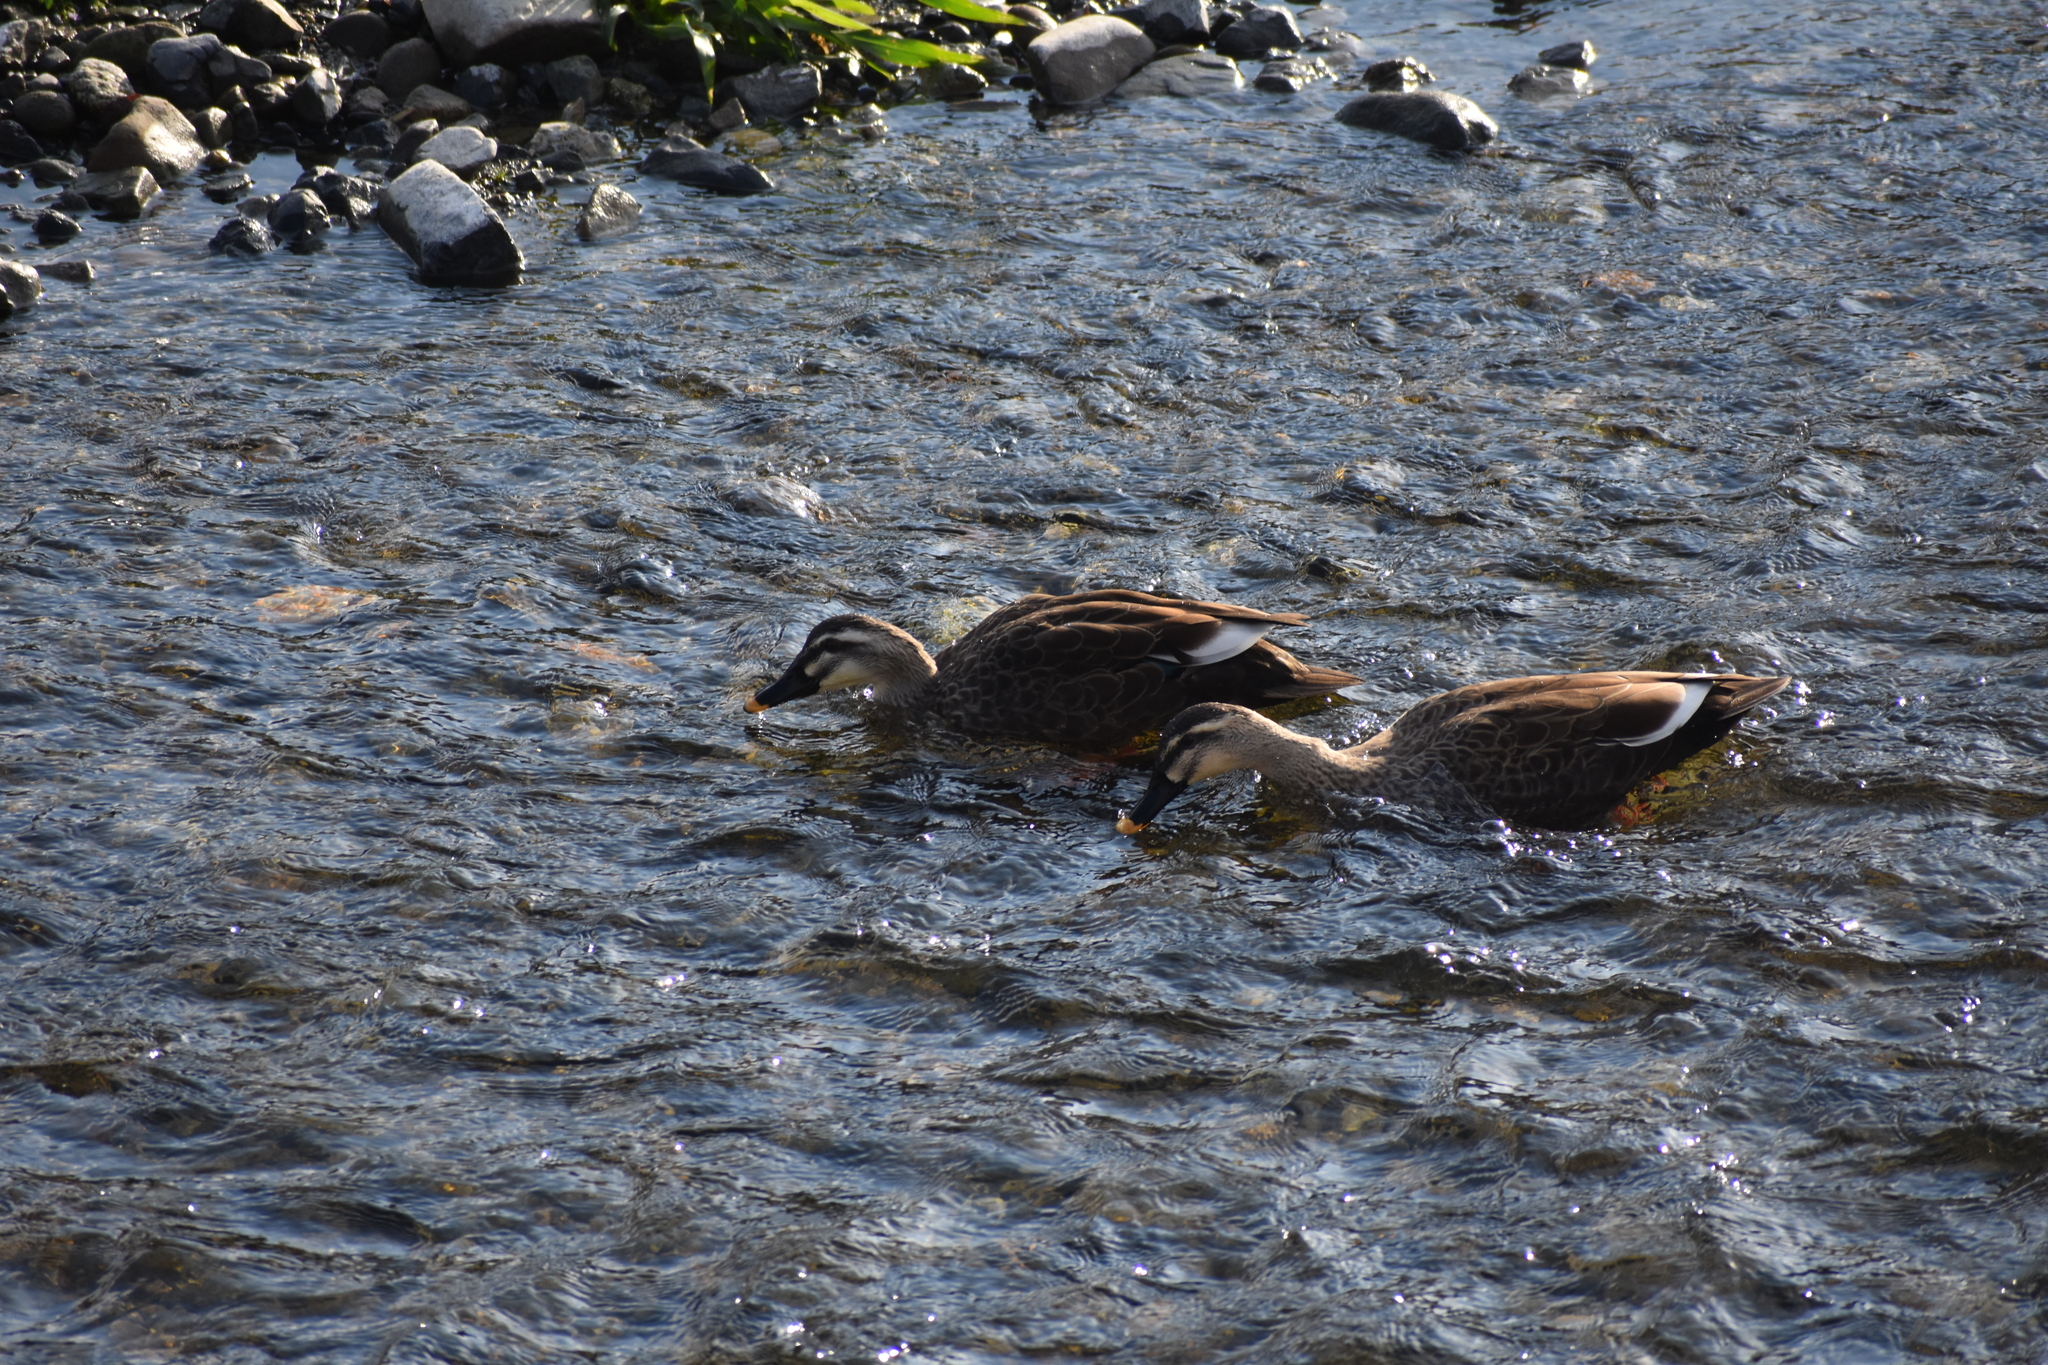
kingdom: Animalia
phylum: Chordata
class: Aves
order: Anseriformes
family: Anatidae
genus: Anas
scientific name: Anas zonorhyncha
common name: Eastern spot-billed duck
